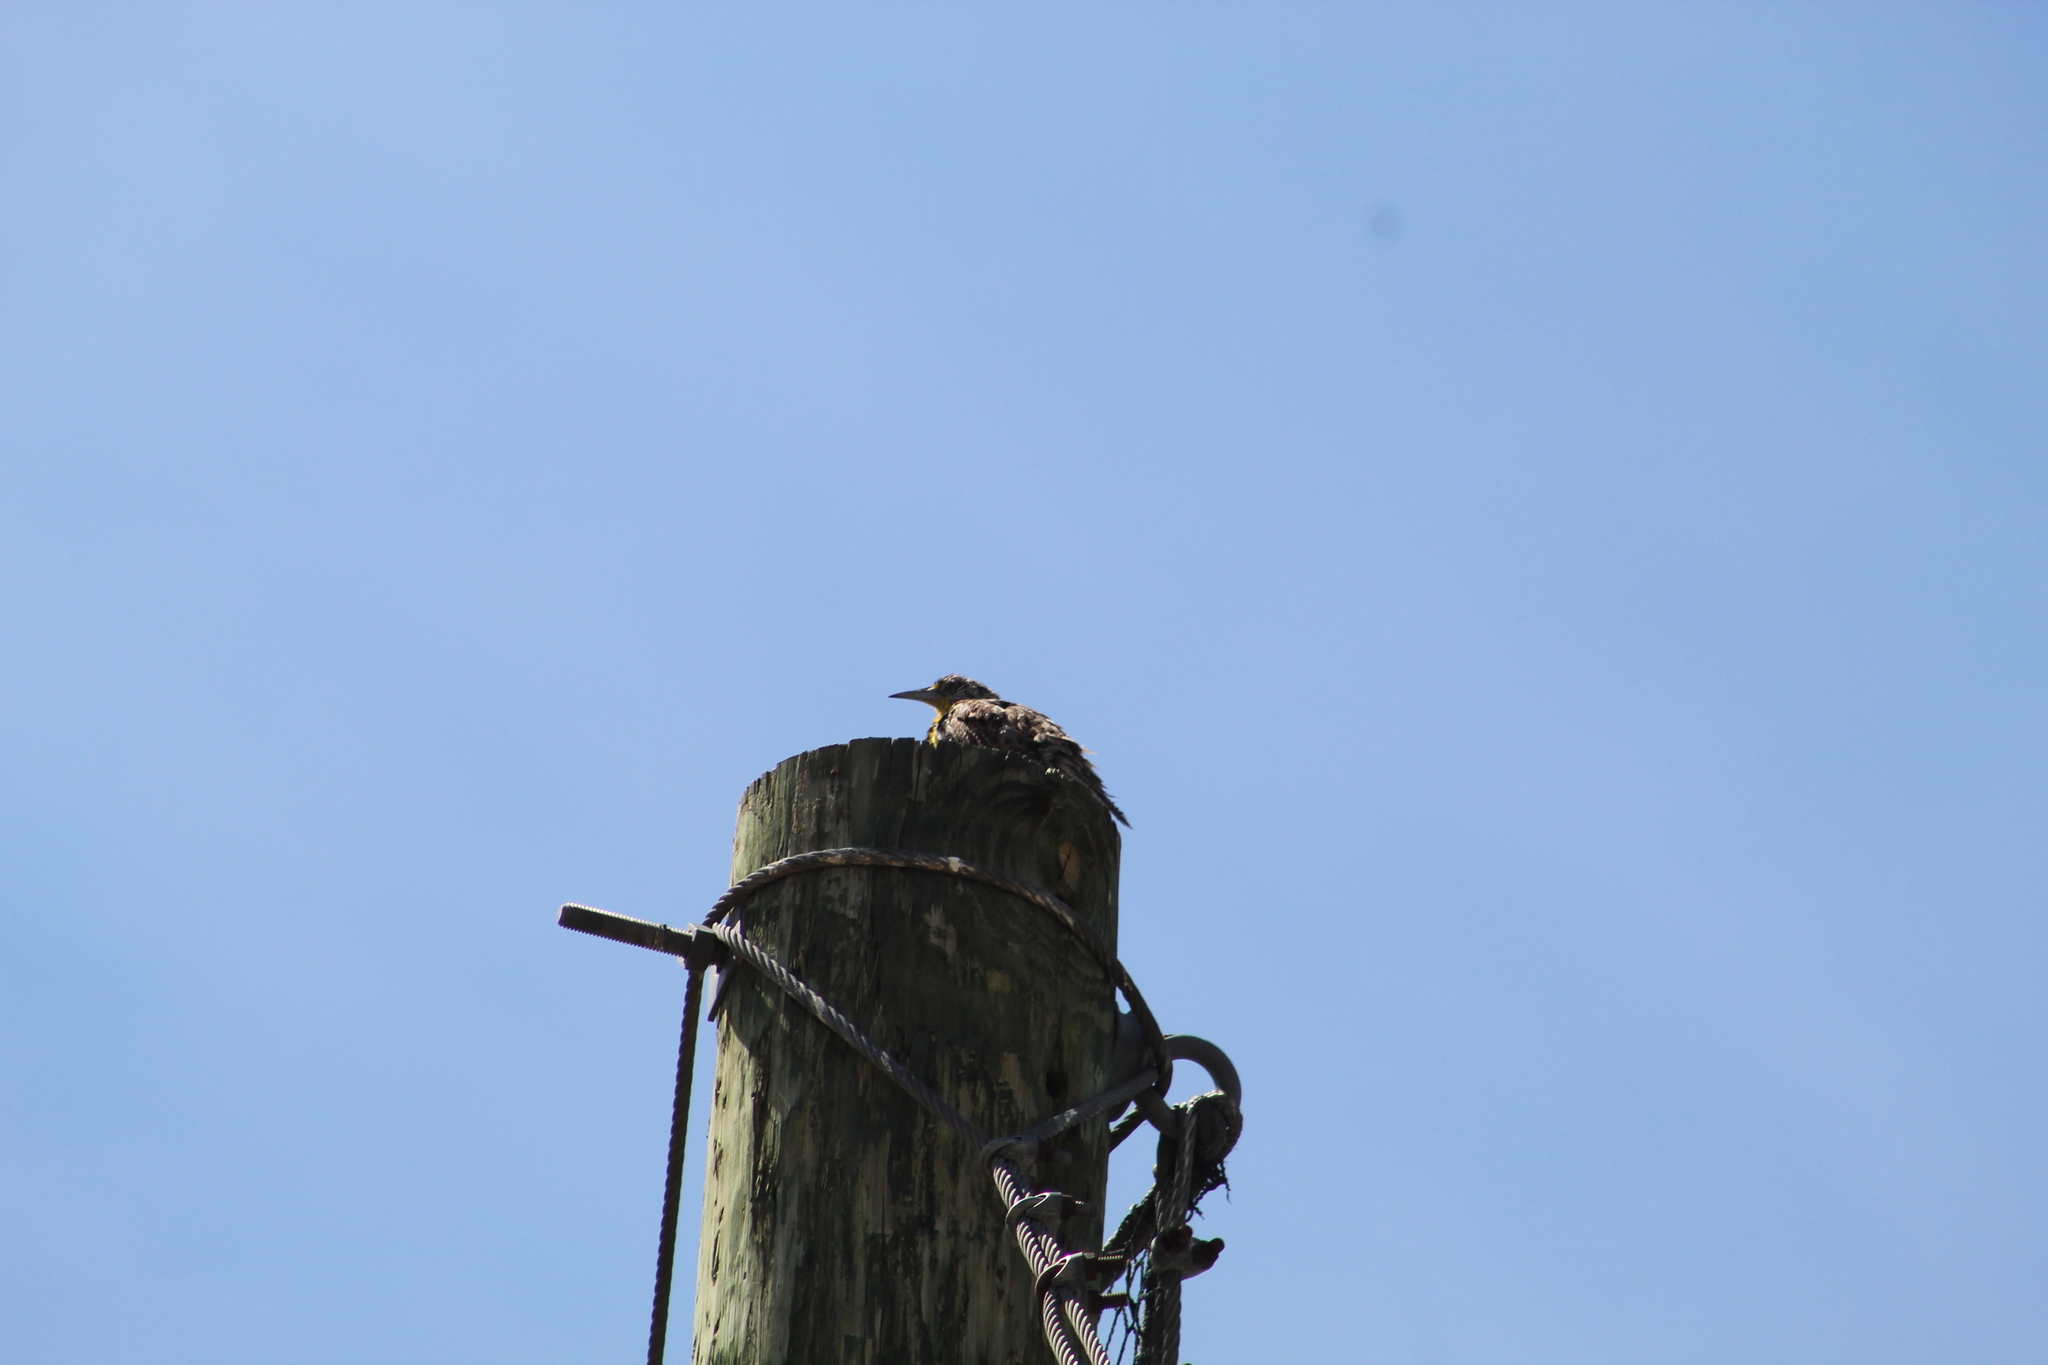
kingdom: Animalia
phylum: Chordata
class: Aves
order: Passeriformes
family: Icteridae
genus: Sturnella
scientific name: Sturnella neglecta
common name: Western meadowlark
